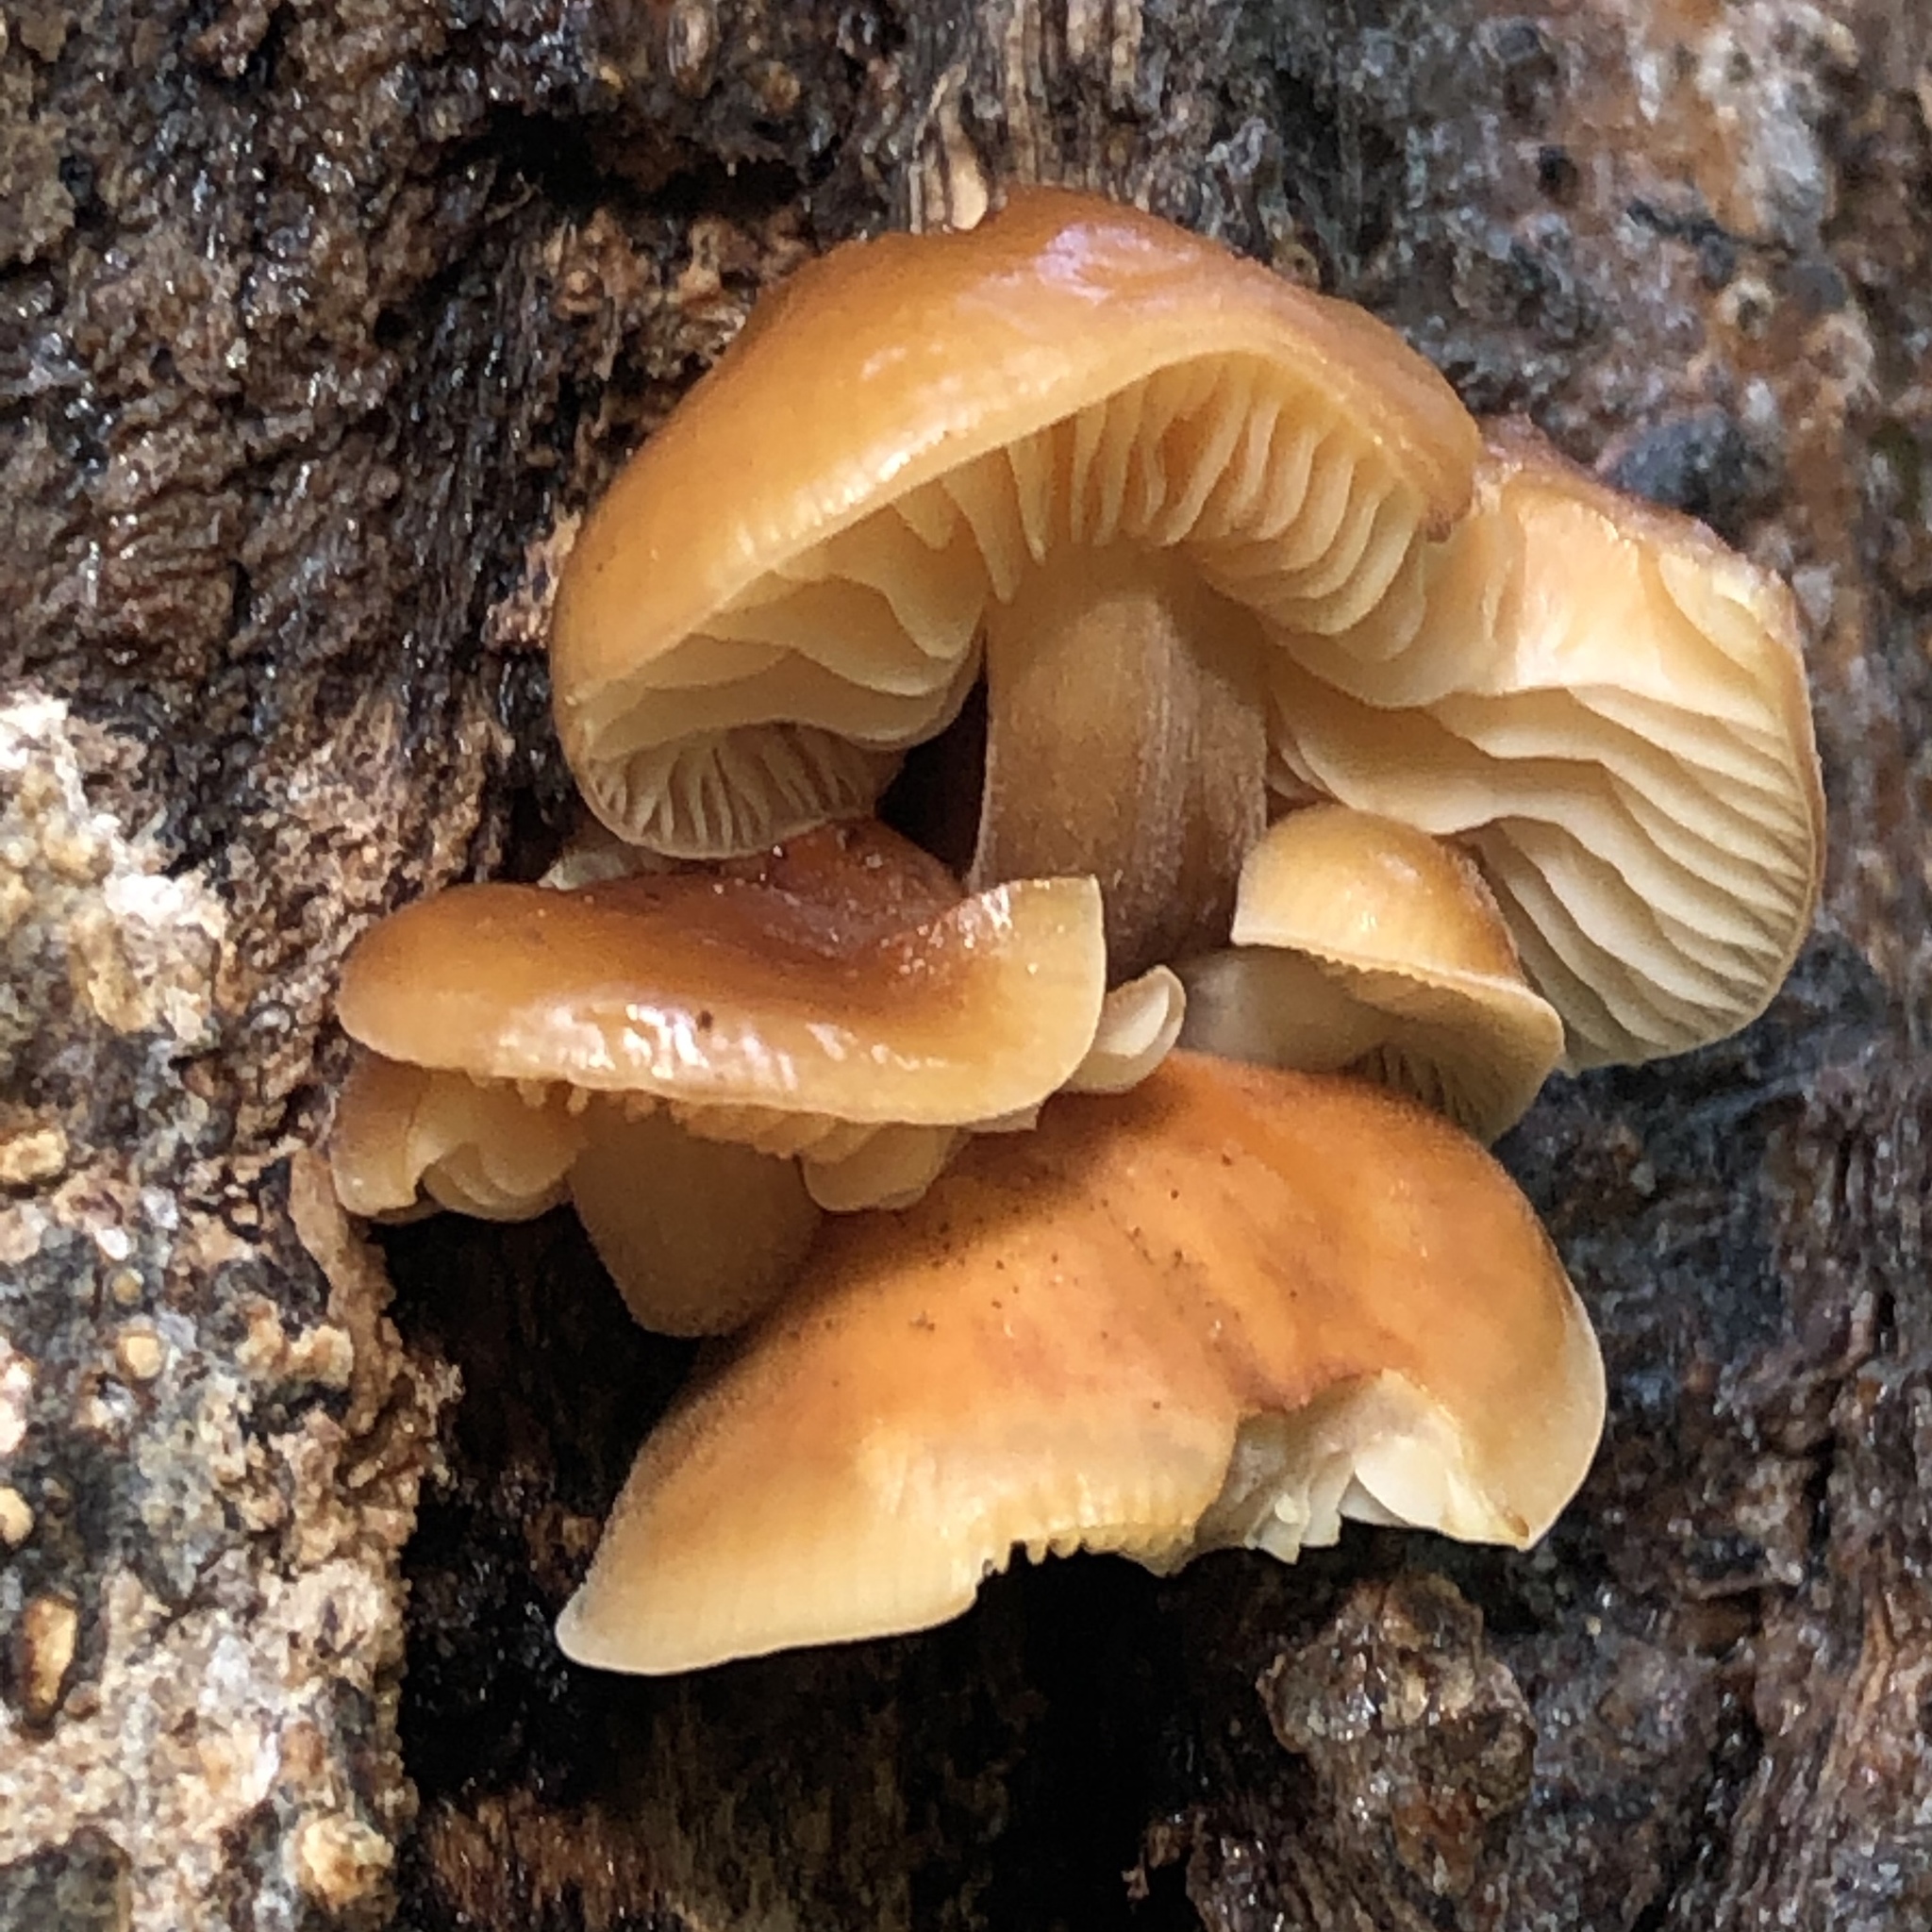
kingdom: Fungi
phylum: Basidiomycota
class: Agaricomycetes
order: Agaricales
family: Physalacriaceae
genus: Flammulina
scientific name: Flammulina velutipes
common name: Velvet shank
